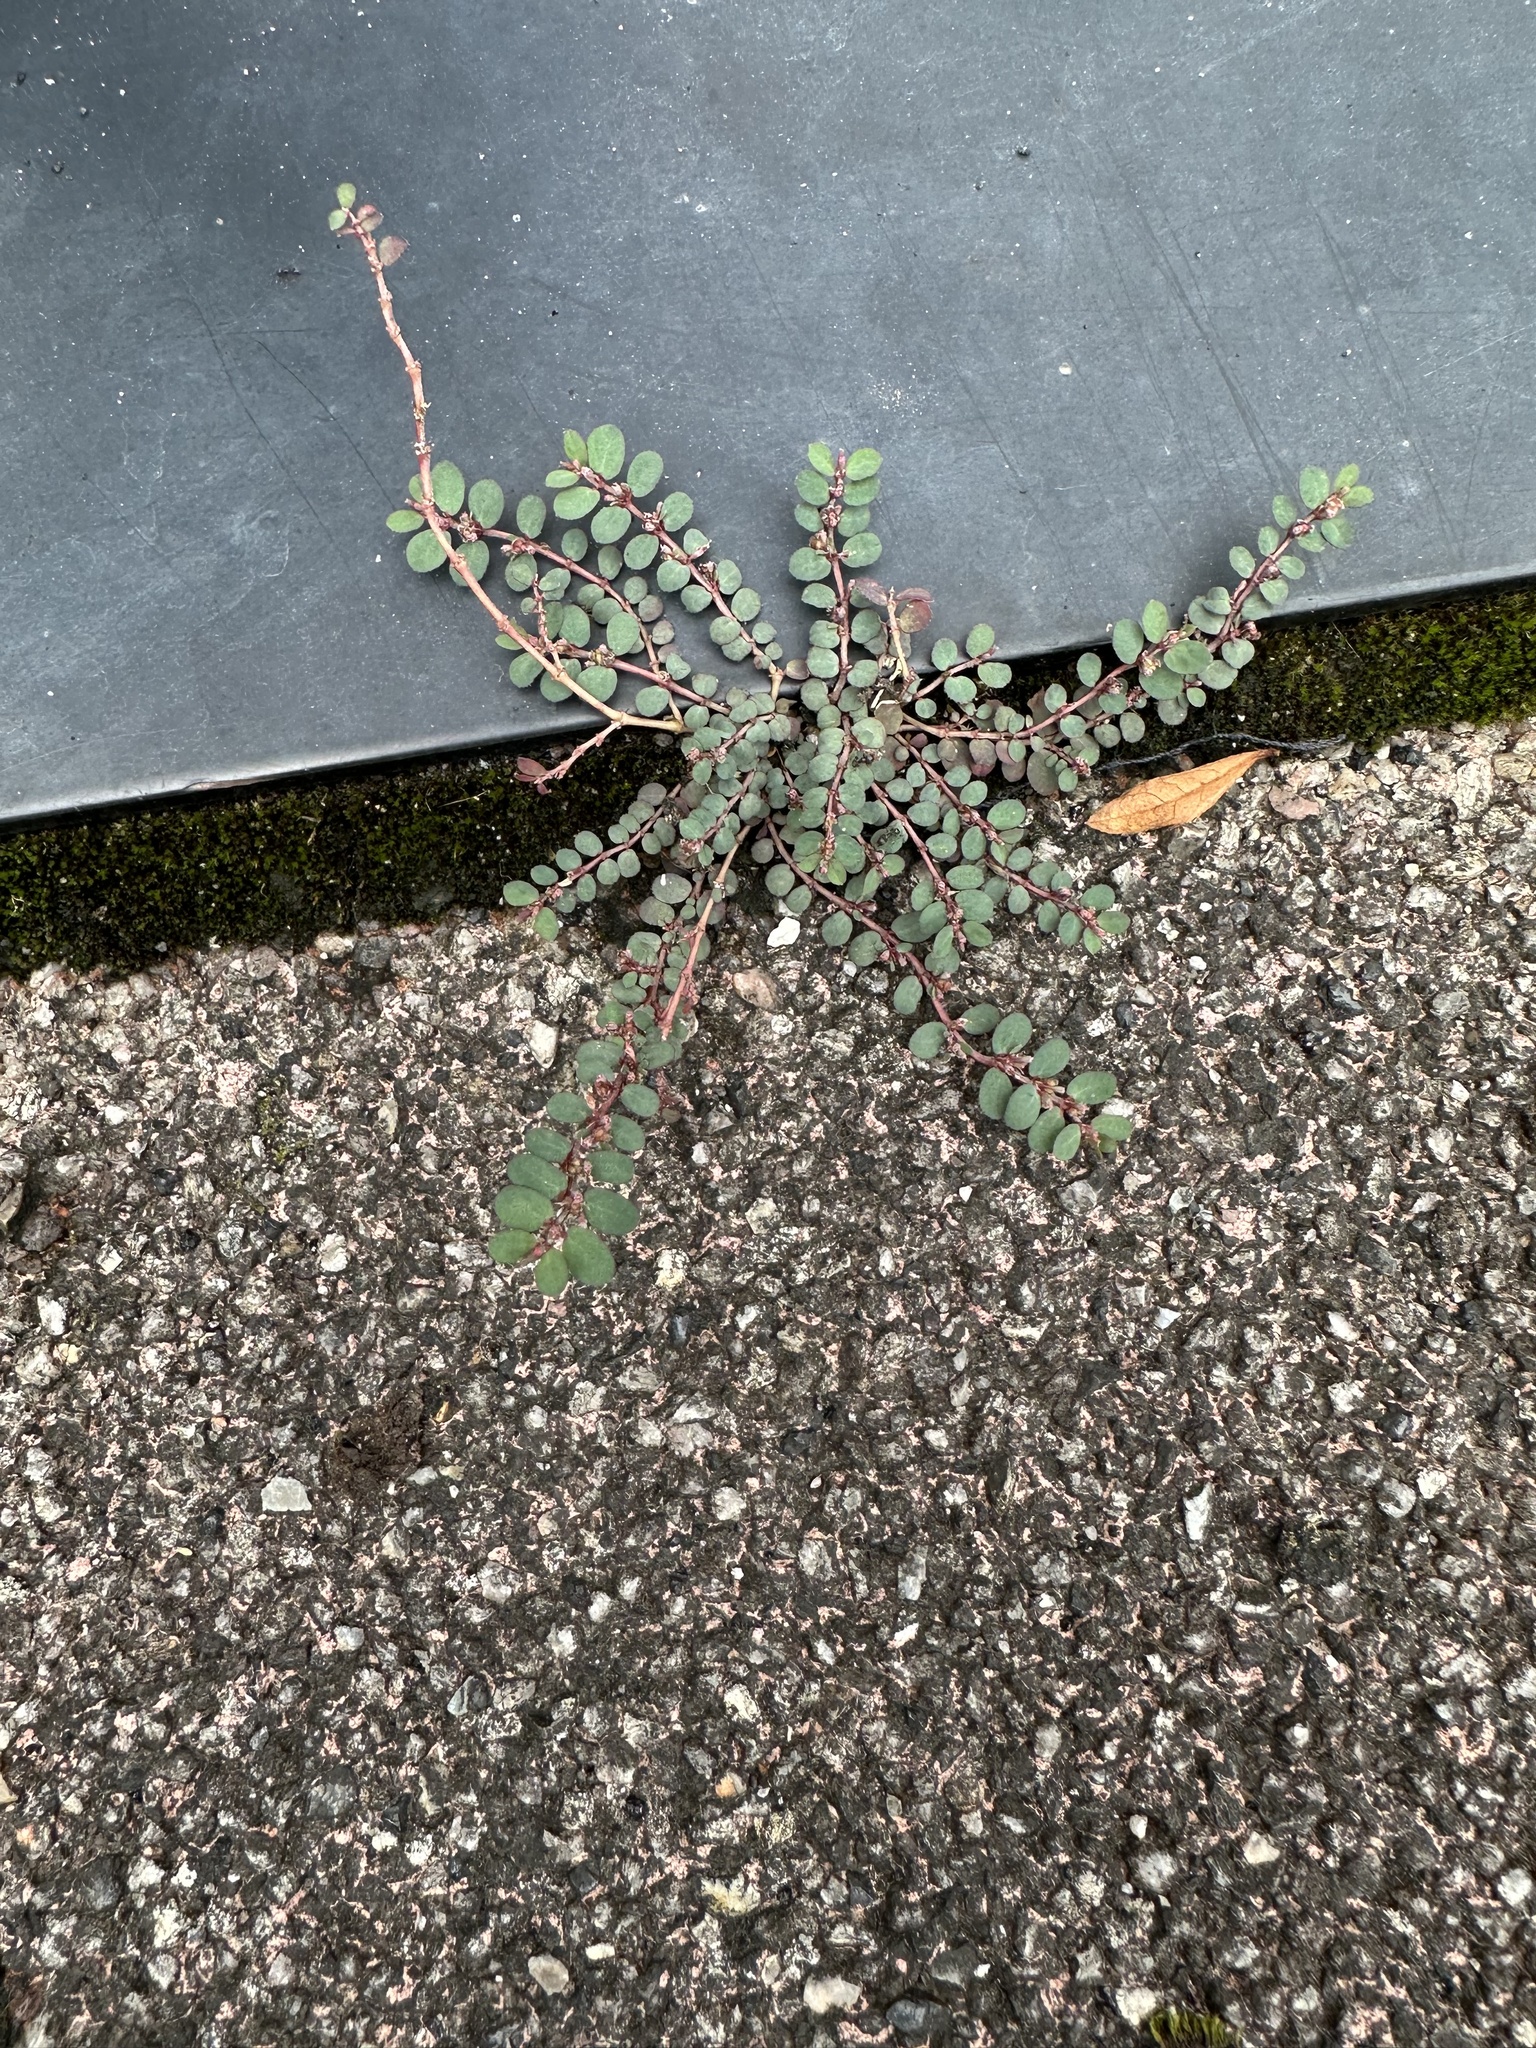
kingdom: Plantae
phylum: Tracheophyta
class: Magnoliopsida
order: Malpighiales
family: Euphorbiaceae
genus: Euphorbia
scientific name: Euphorbia prostrata
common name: Prostrate sandmat
